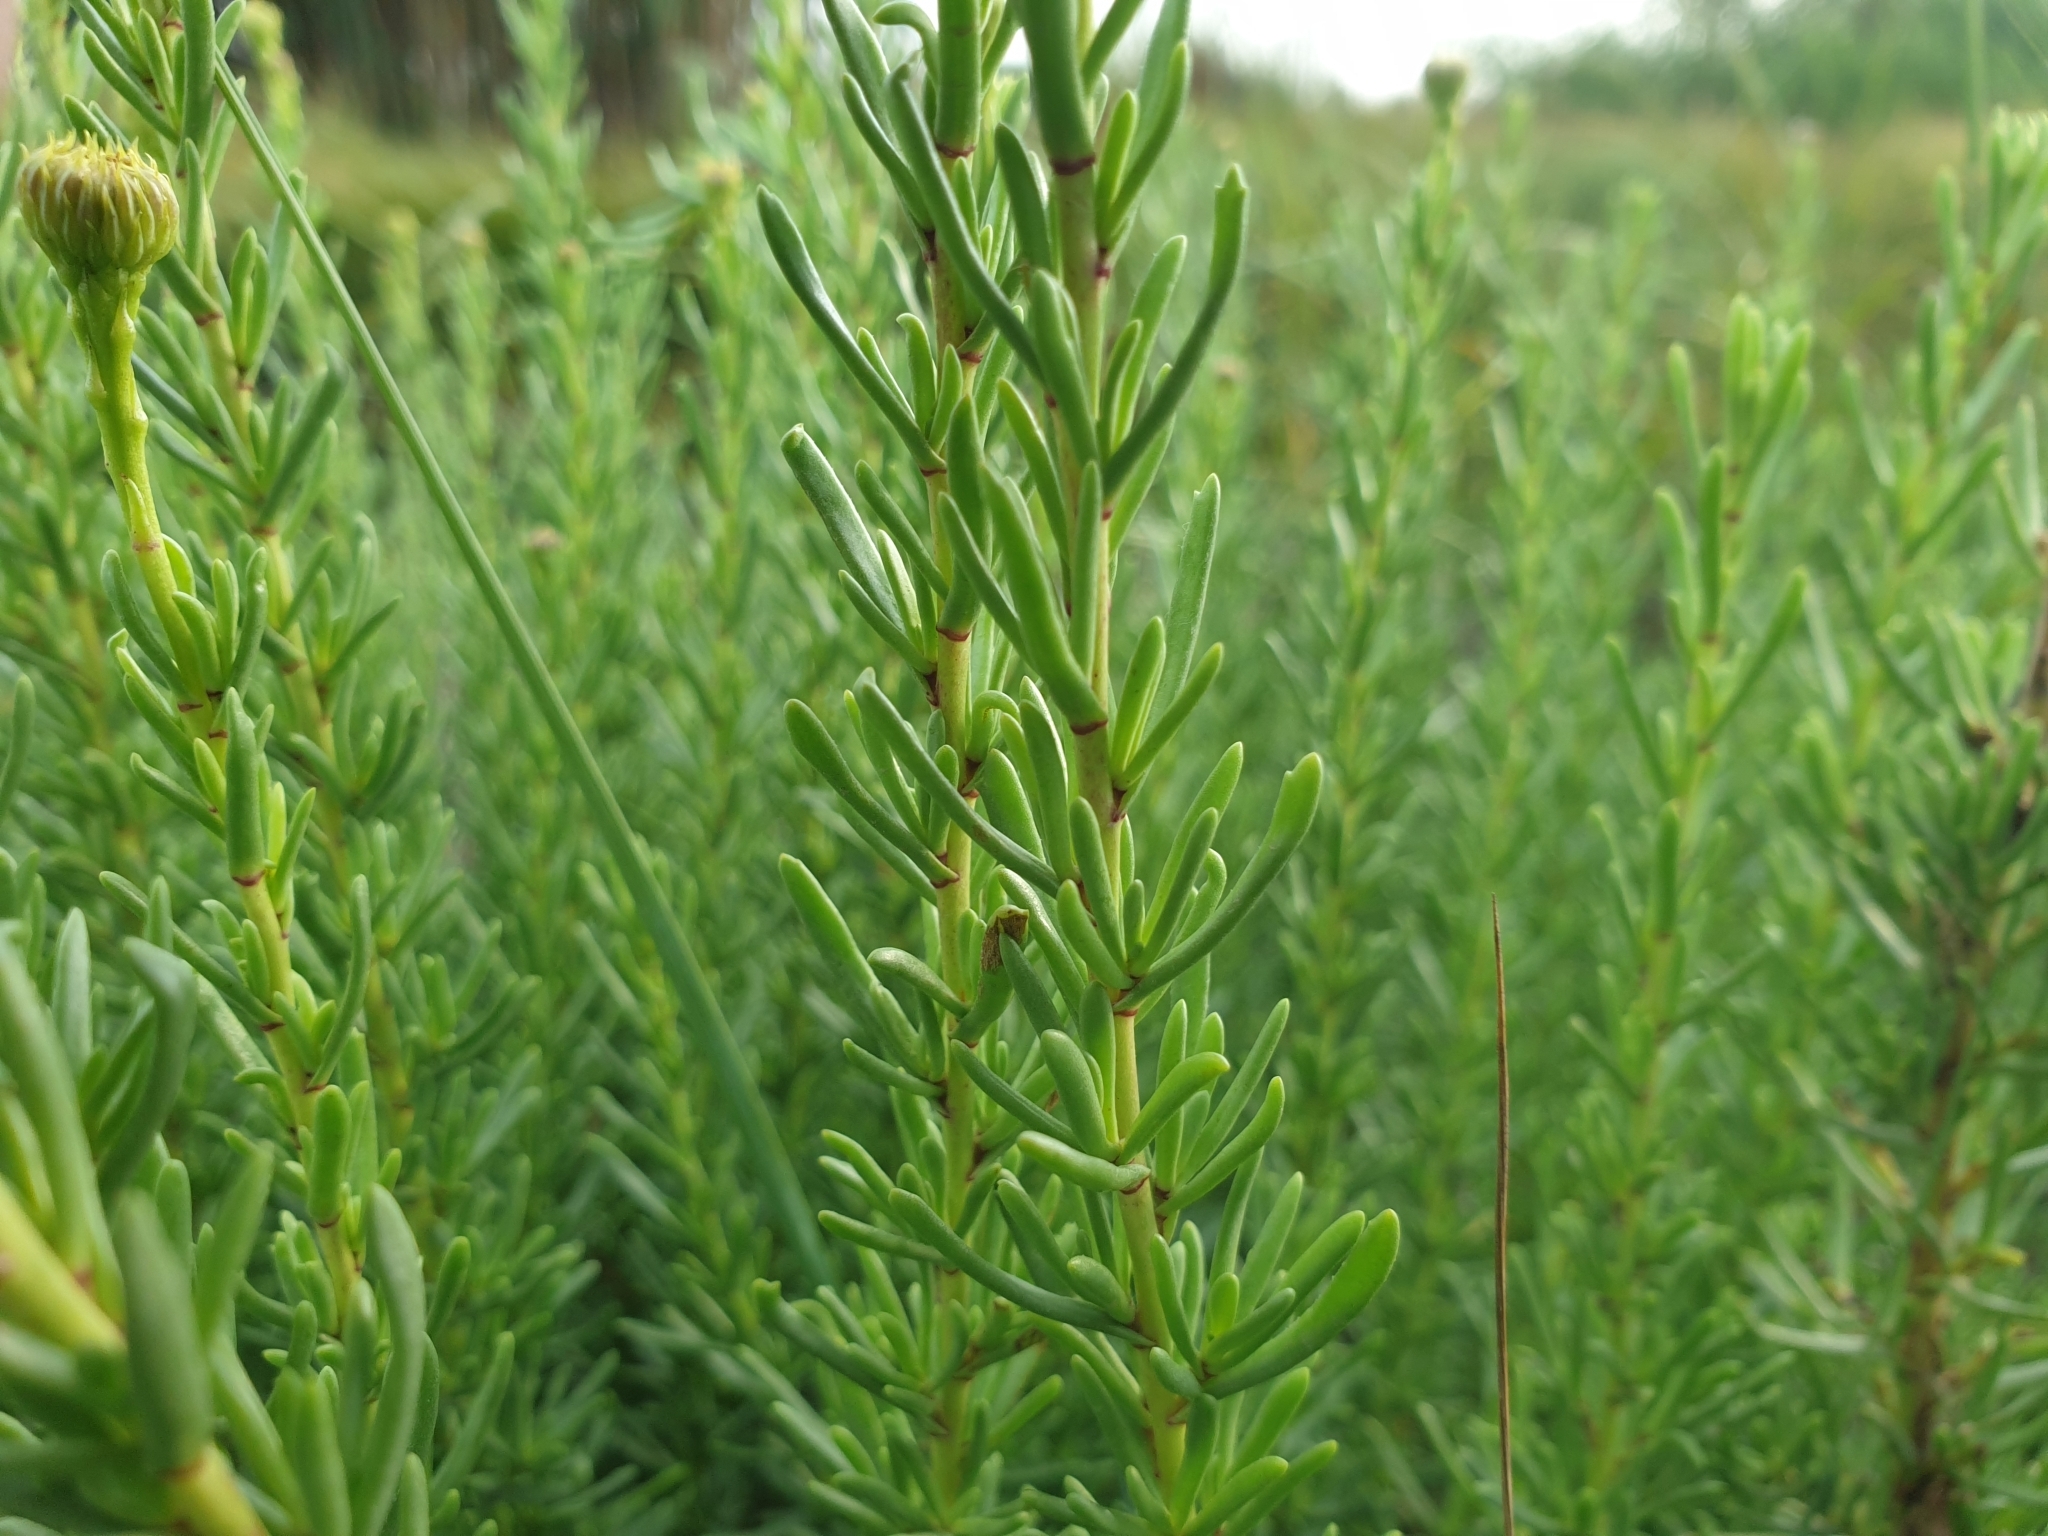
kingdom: Plantae
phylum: Tracheophyta
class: Magnoliopsida
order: Asterales
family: Asteraceae
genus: Limbarda
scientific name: Limbarda crithmoides
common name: Golden samphire
